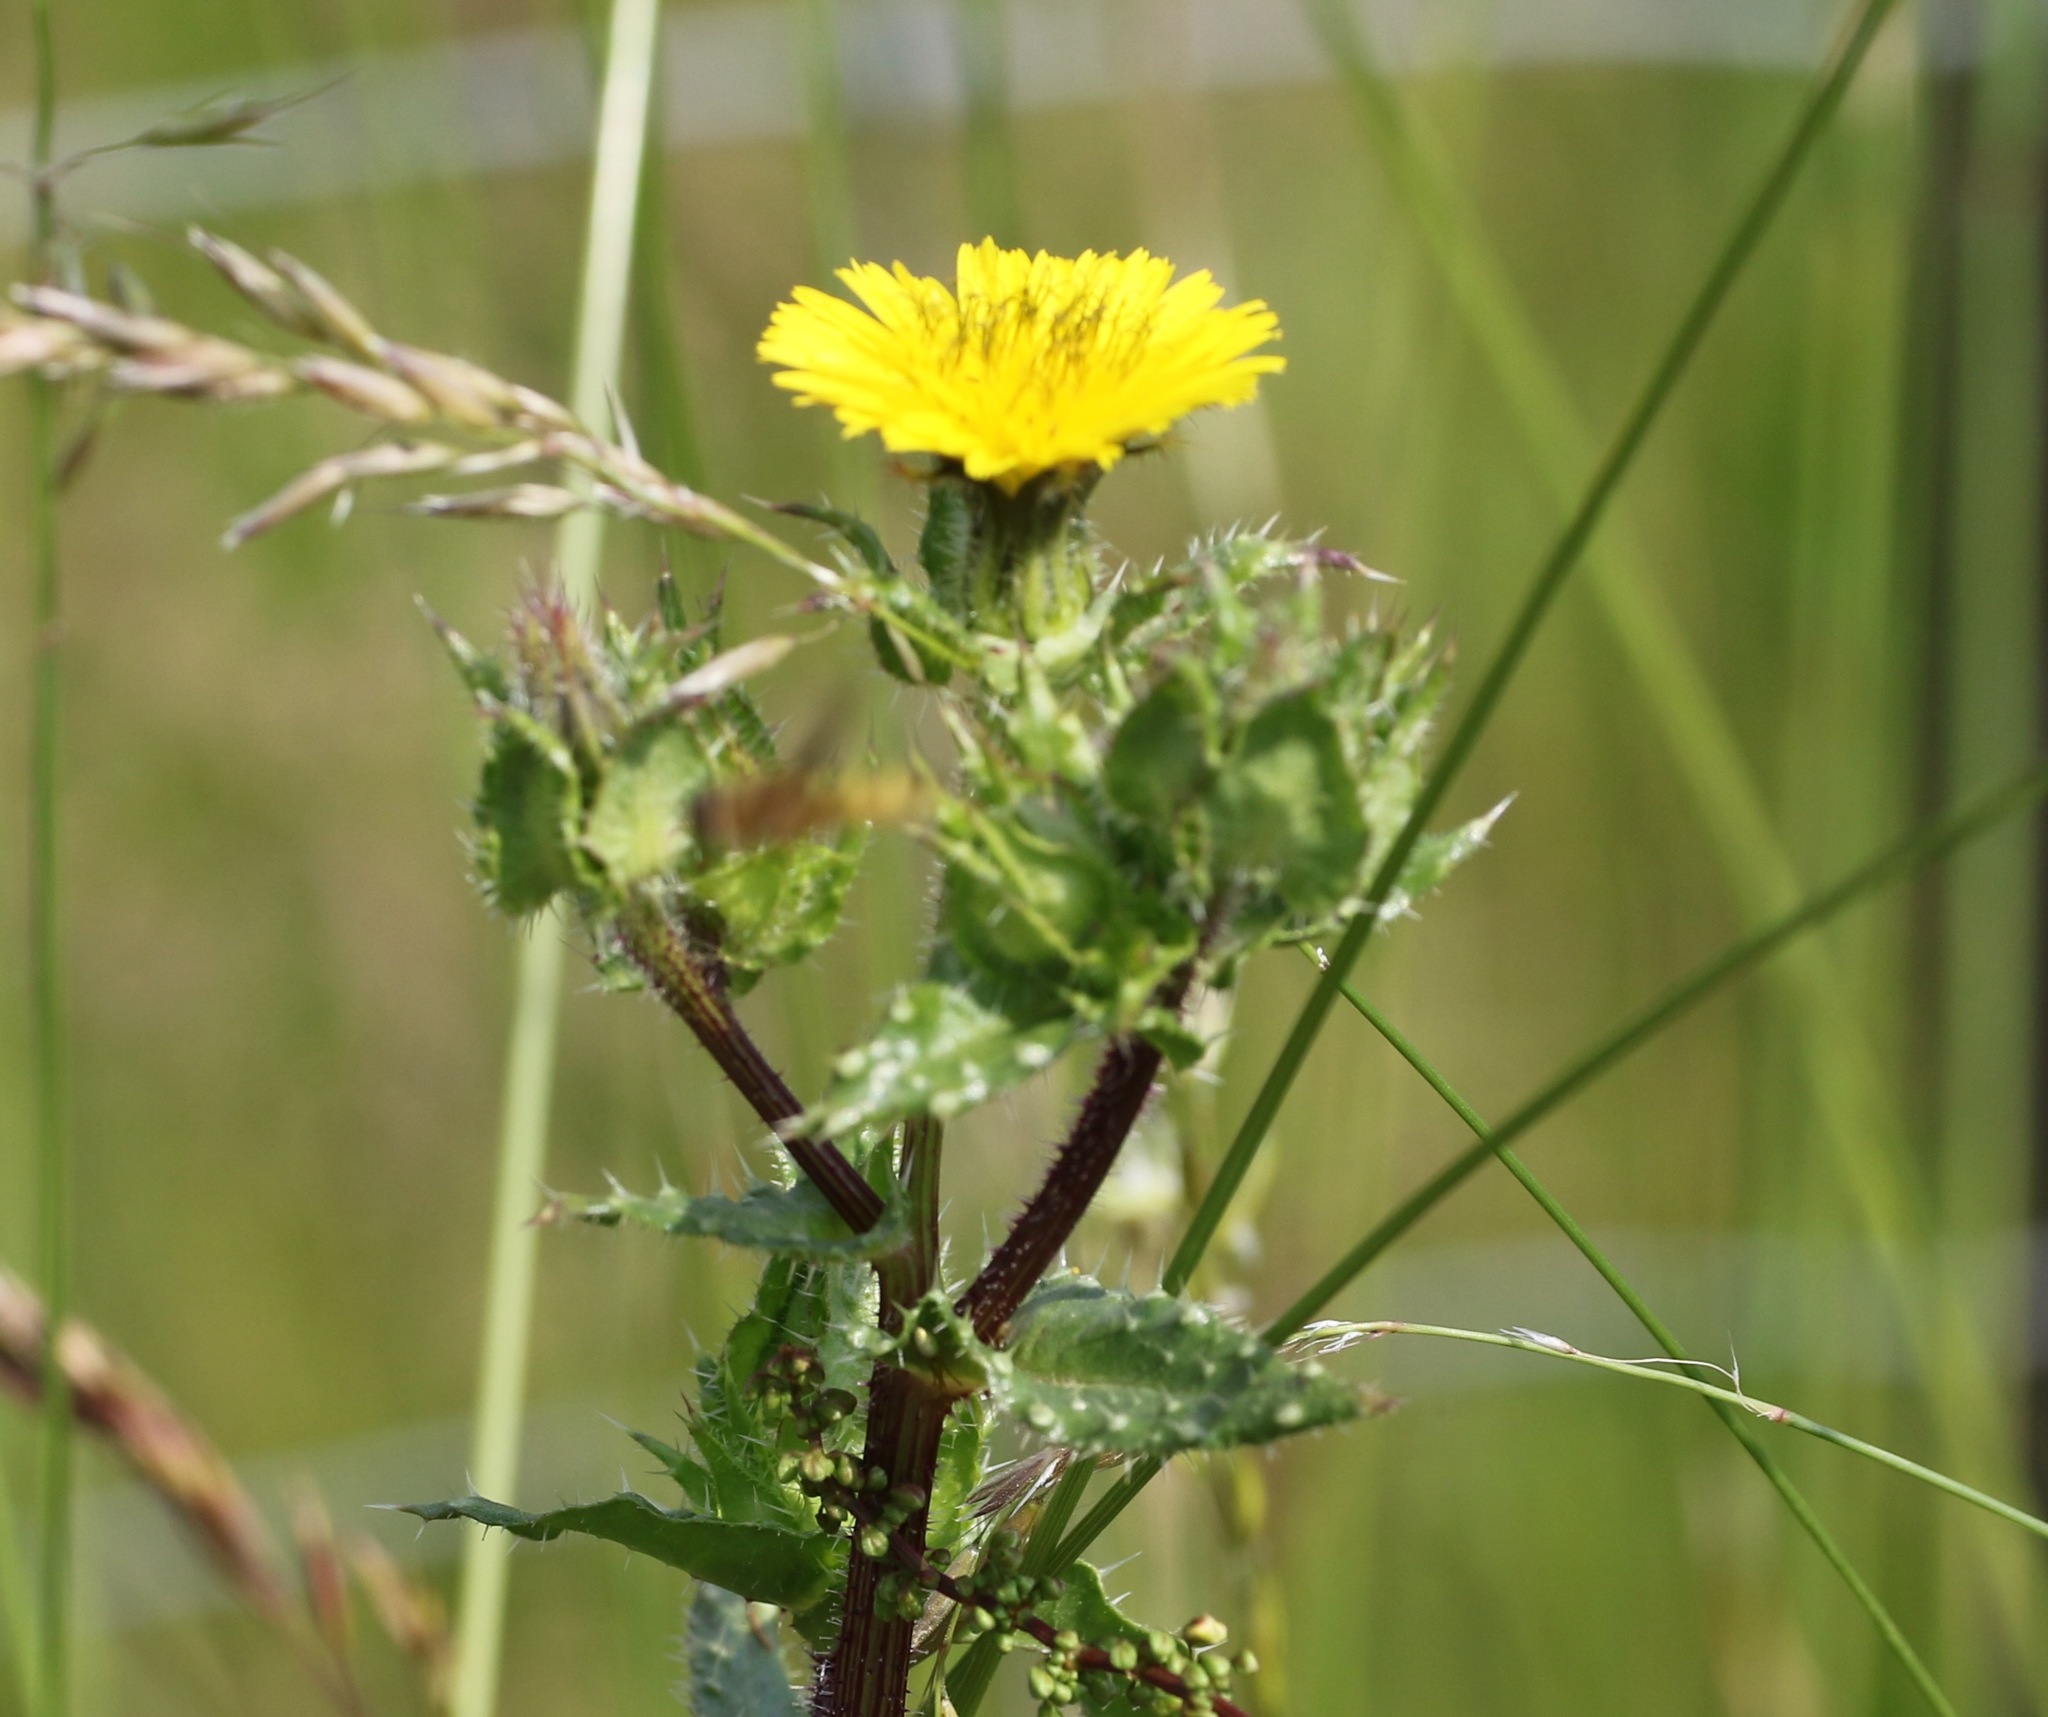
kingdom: Plantae
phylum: Tracheophyta
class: Magnoliopsida
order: Asterales
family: Asteraceae
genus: Helminthotheca
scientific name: Helminthotheca echioides
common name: Ox-tongue
